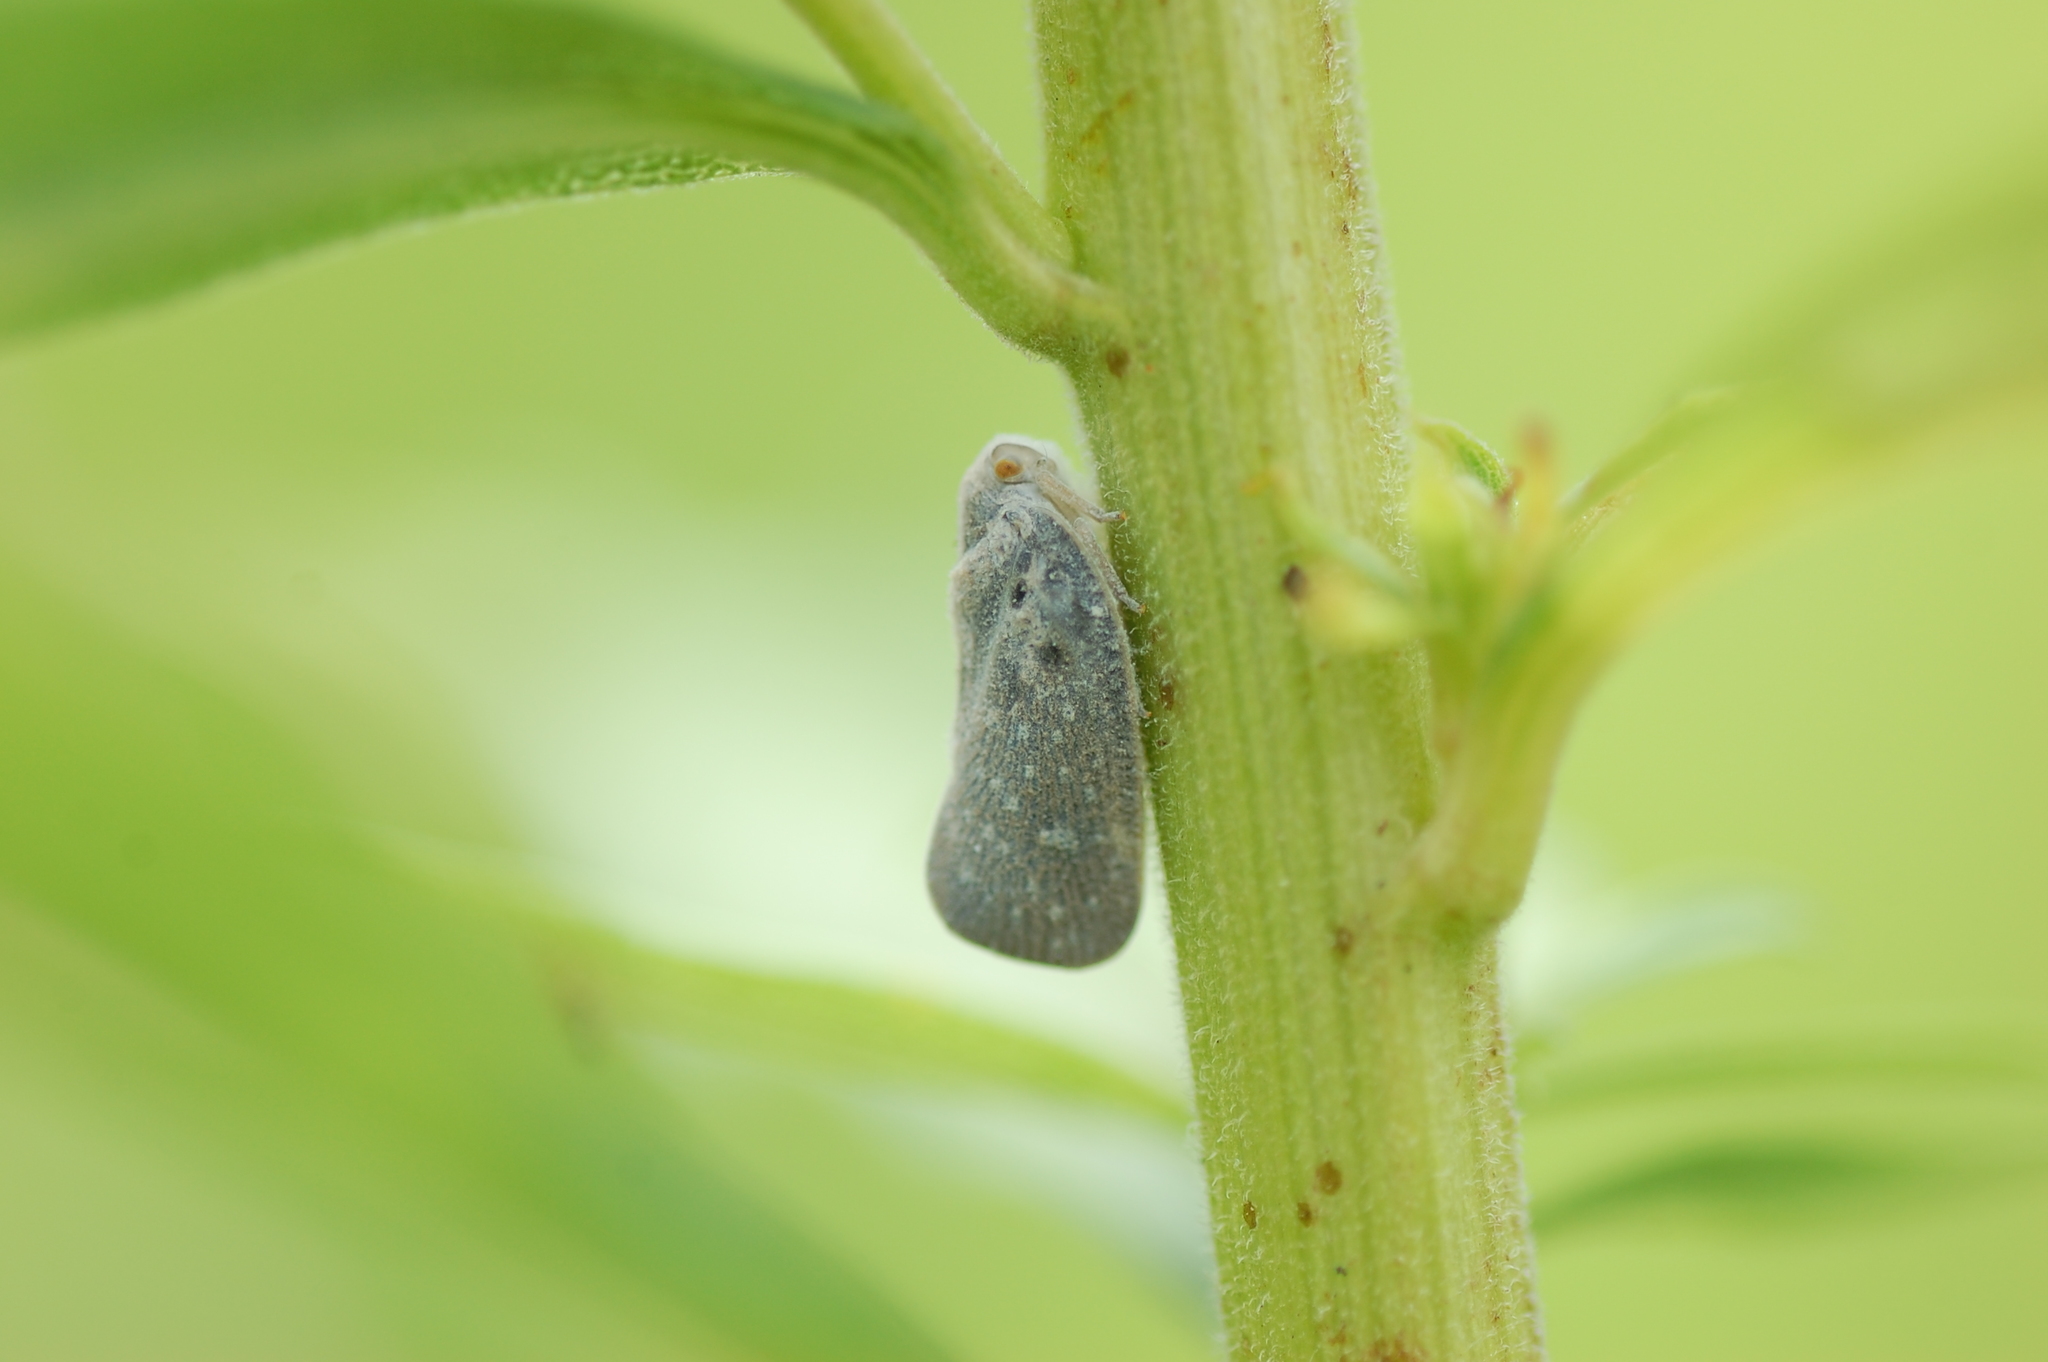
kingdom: Animalia
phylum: Arthropoda
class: Insecta
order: Hemiptera
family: Flatidae
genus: Metcalfa
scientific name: Metcalfa pruinosa
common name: Citrus flatid planthopper
